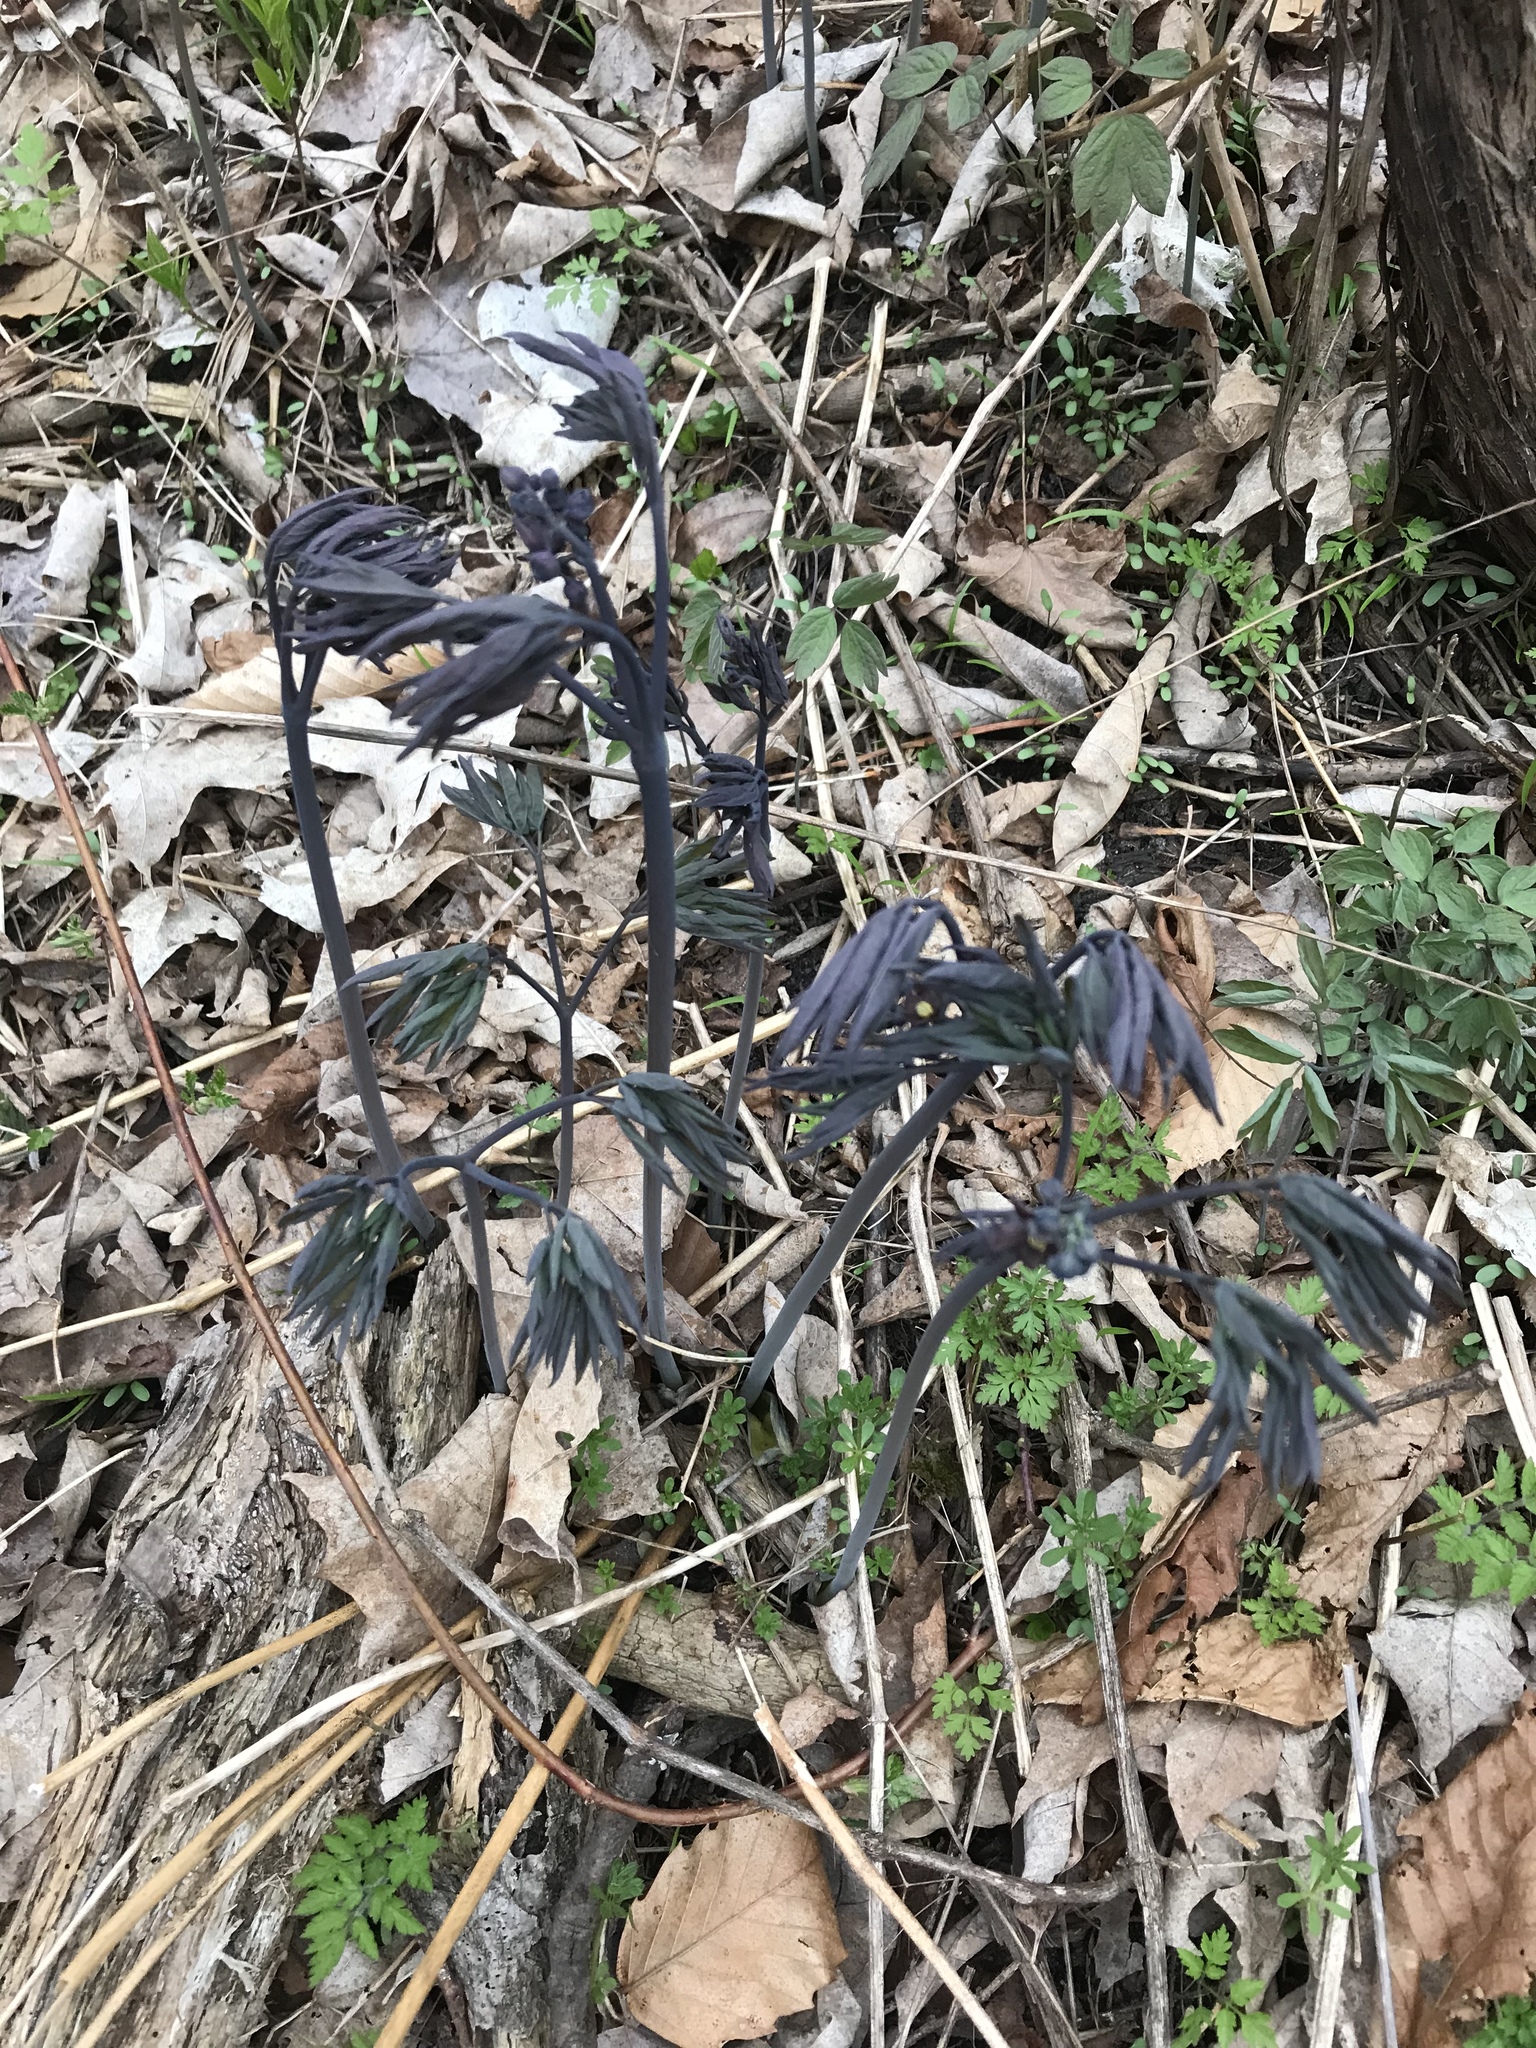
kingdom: Plantae
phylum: Tracheophyta
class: Magnoliopsida
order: Ranunculales
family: Berberidaceae
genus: Caulophyllum
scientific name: Caulophyllum giganteum
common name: Blue cohosh
